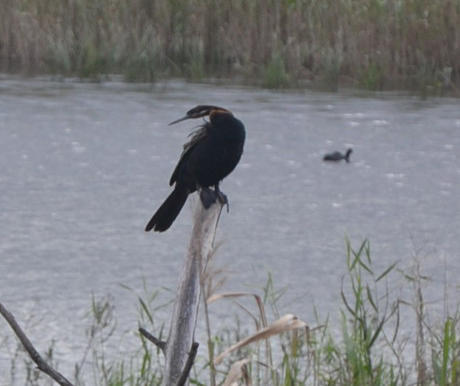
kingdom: Animalia
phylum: Chordata
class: Aves
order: Suliformes
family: Anhingidae
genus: Anhinga
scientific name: Anhinga rufa
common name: African darter
